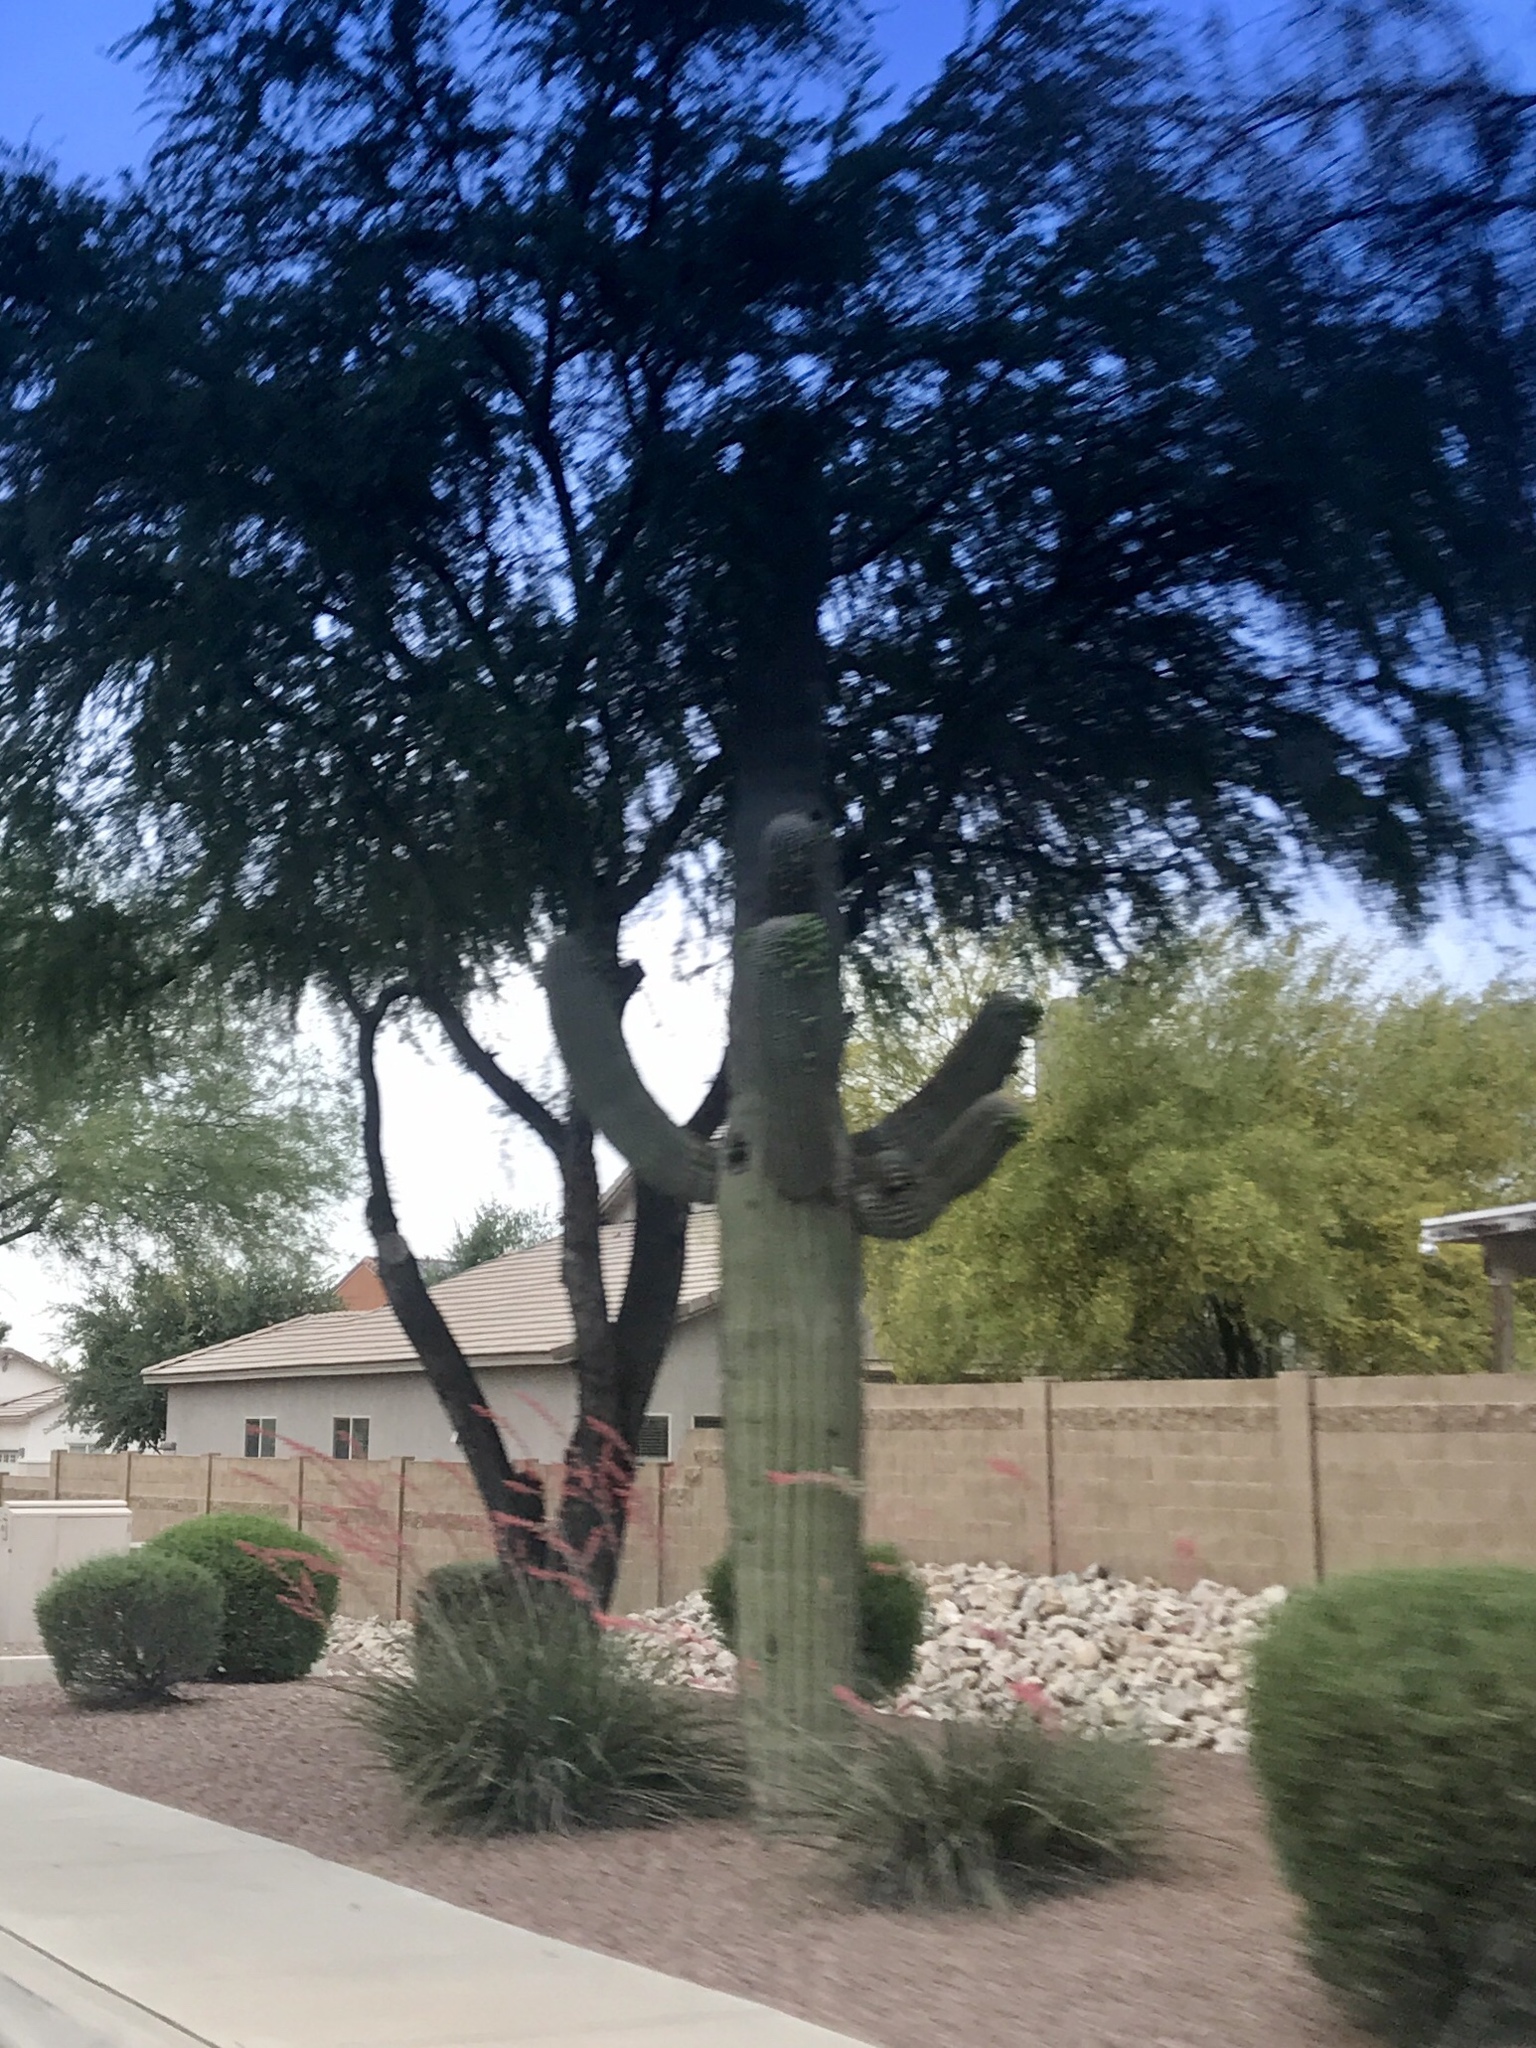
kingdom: Plantae
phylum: Tracheophyta
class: Magnoliopsida
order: Caryophyllales
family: Cactaceae
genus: Carnegiea
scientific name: Carnegiea gigantea
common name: Saguaro
